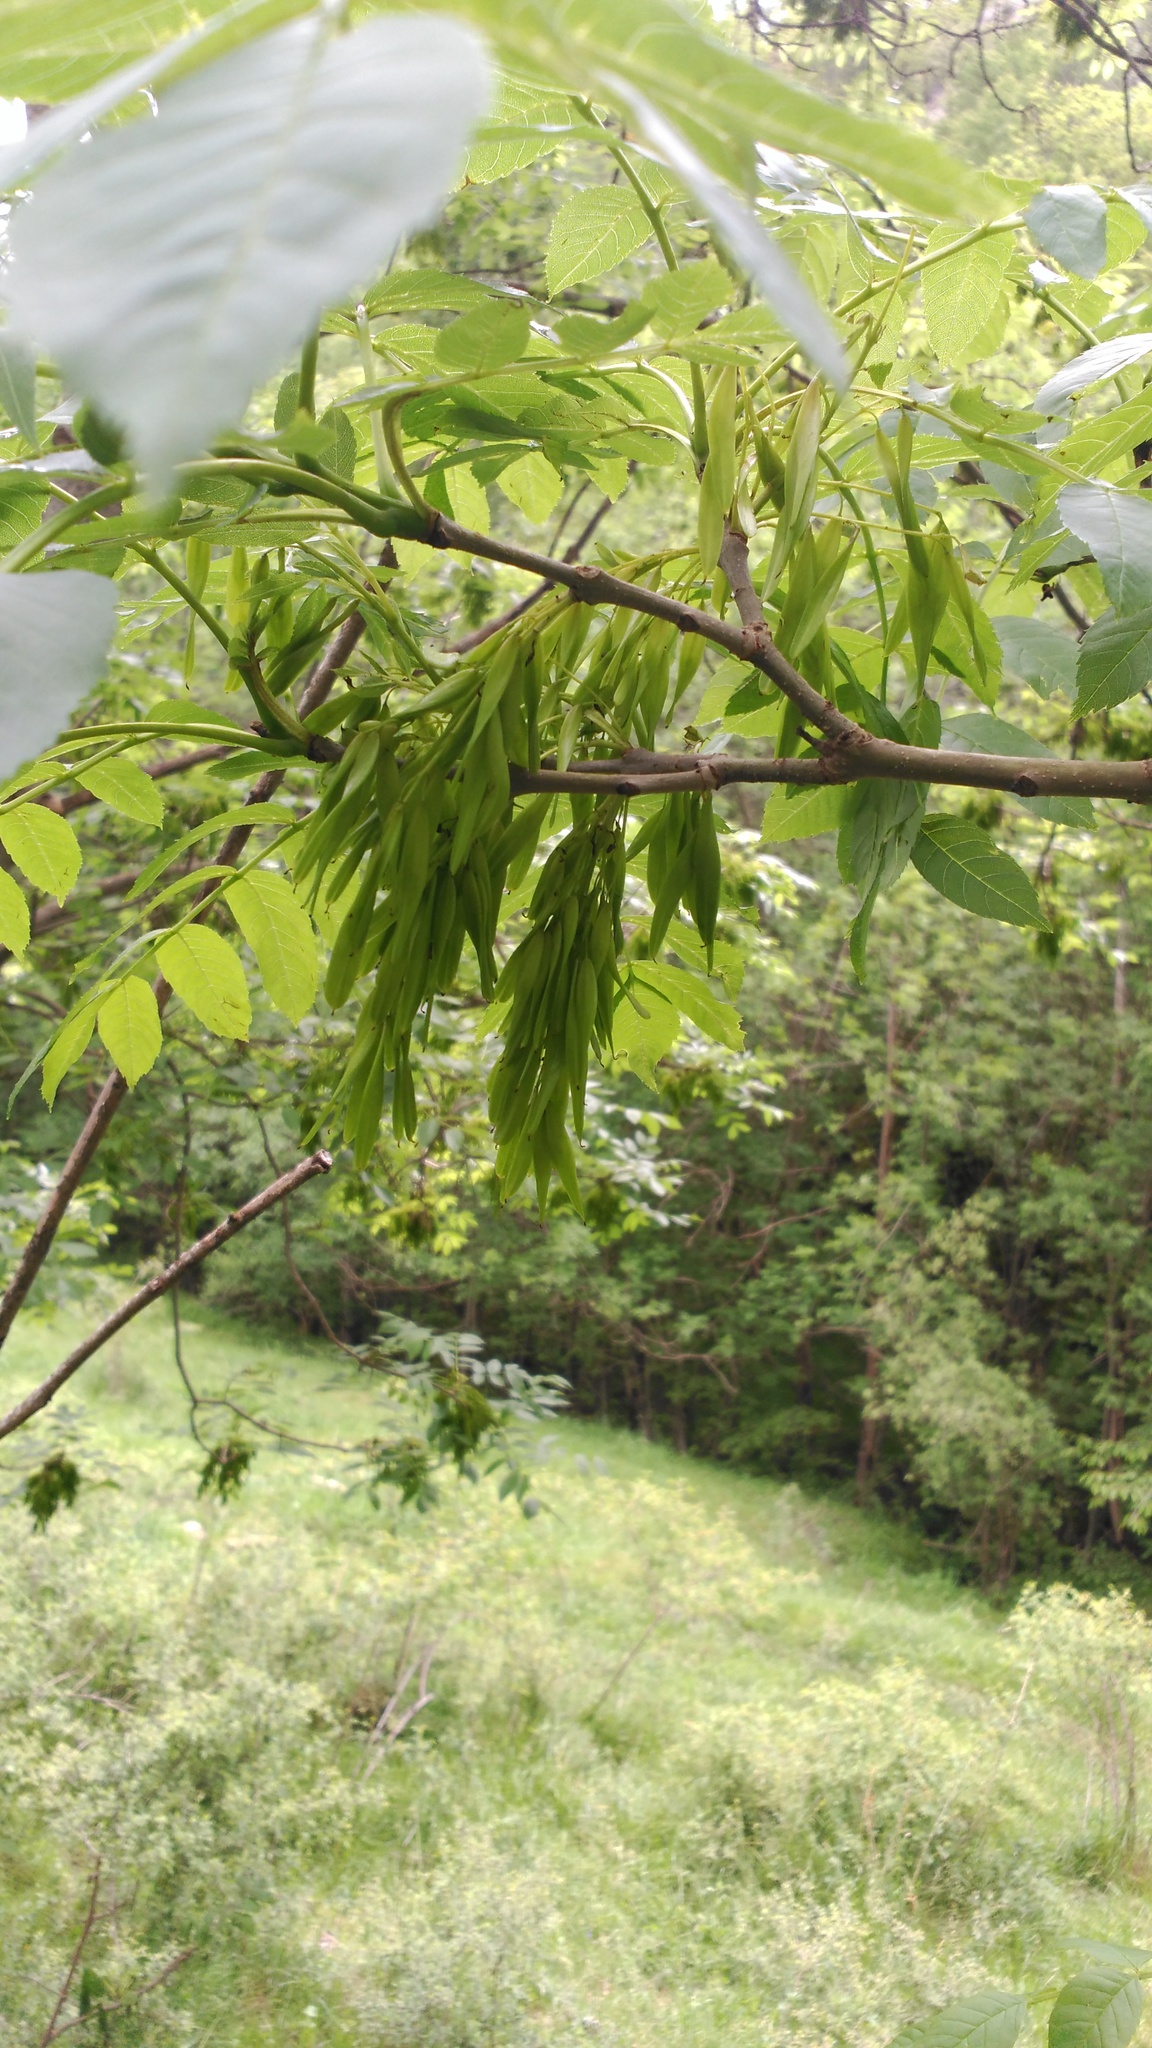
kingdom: Plantae
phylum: Tracheophyta
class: Magnoliopsida
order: Lamiales
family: Oleaceae
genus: Fraxinus
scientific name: Fraxinus excelsior
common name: European ash
